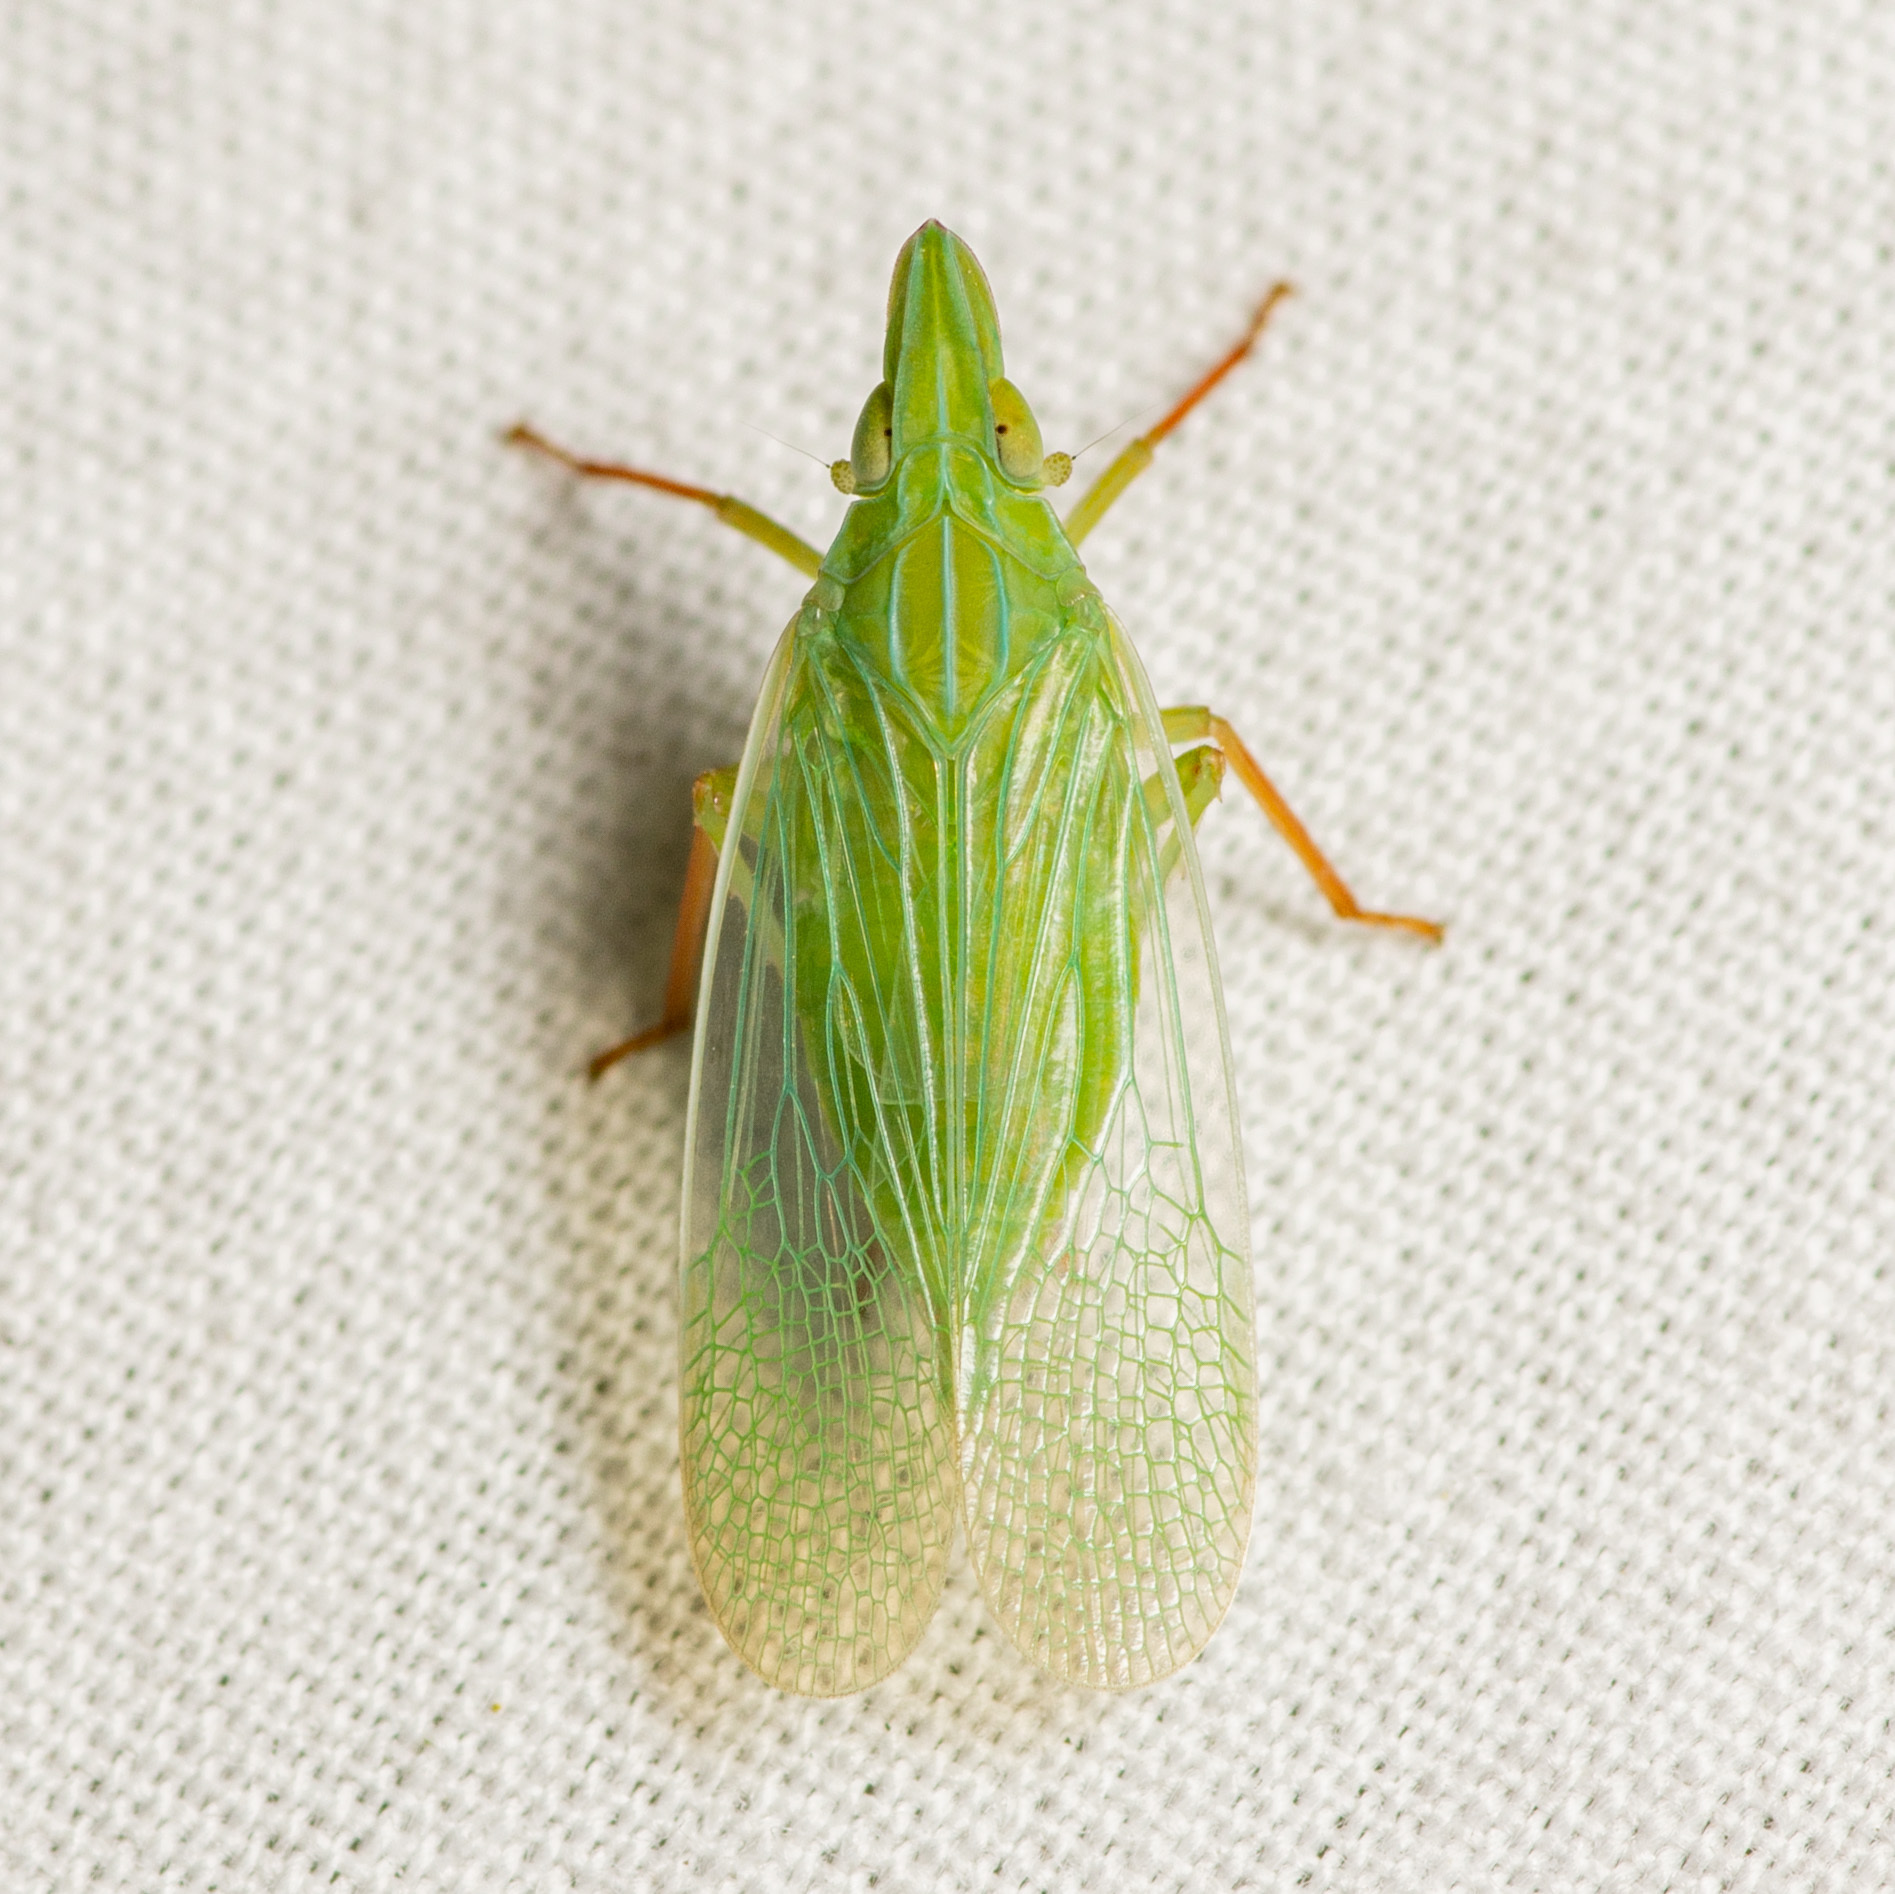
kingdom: Animalia
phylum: Arthropoda
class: Insecta
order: Hemiptera
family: Dictyopharidae
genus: Rhynchomitra
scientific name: Rhynchomitra recurva
